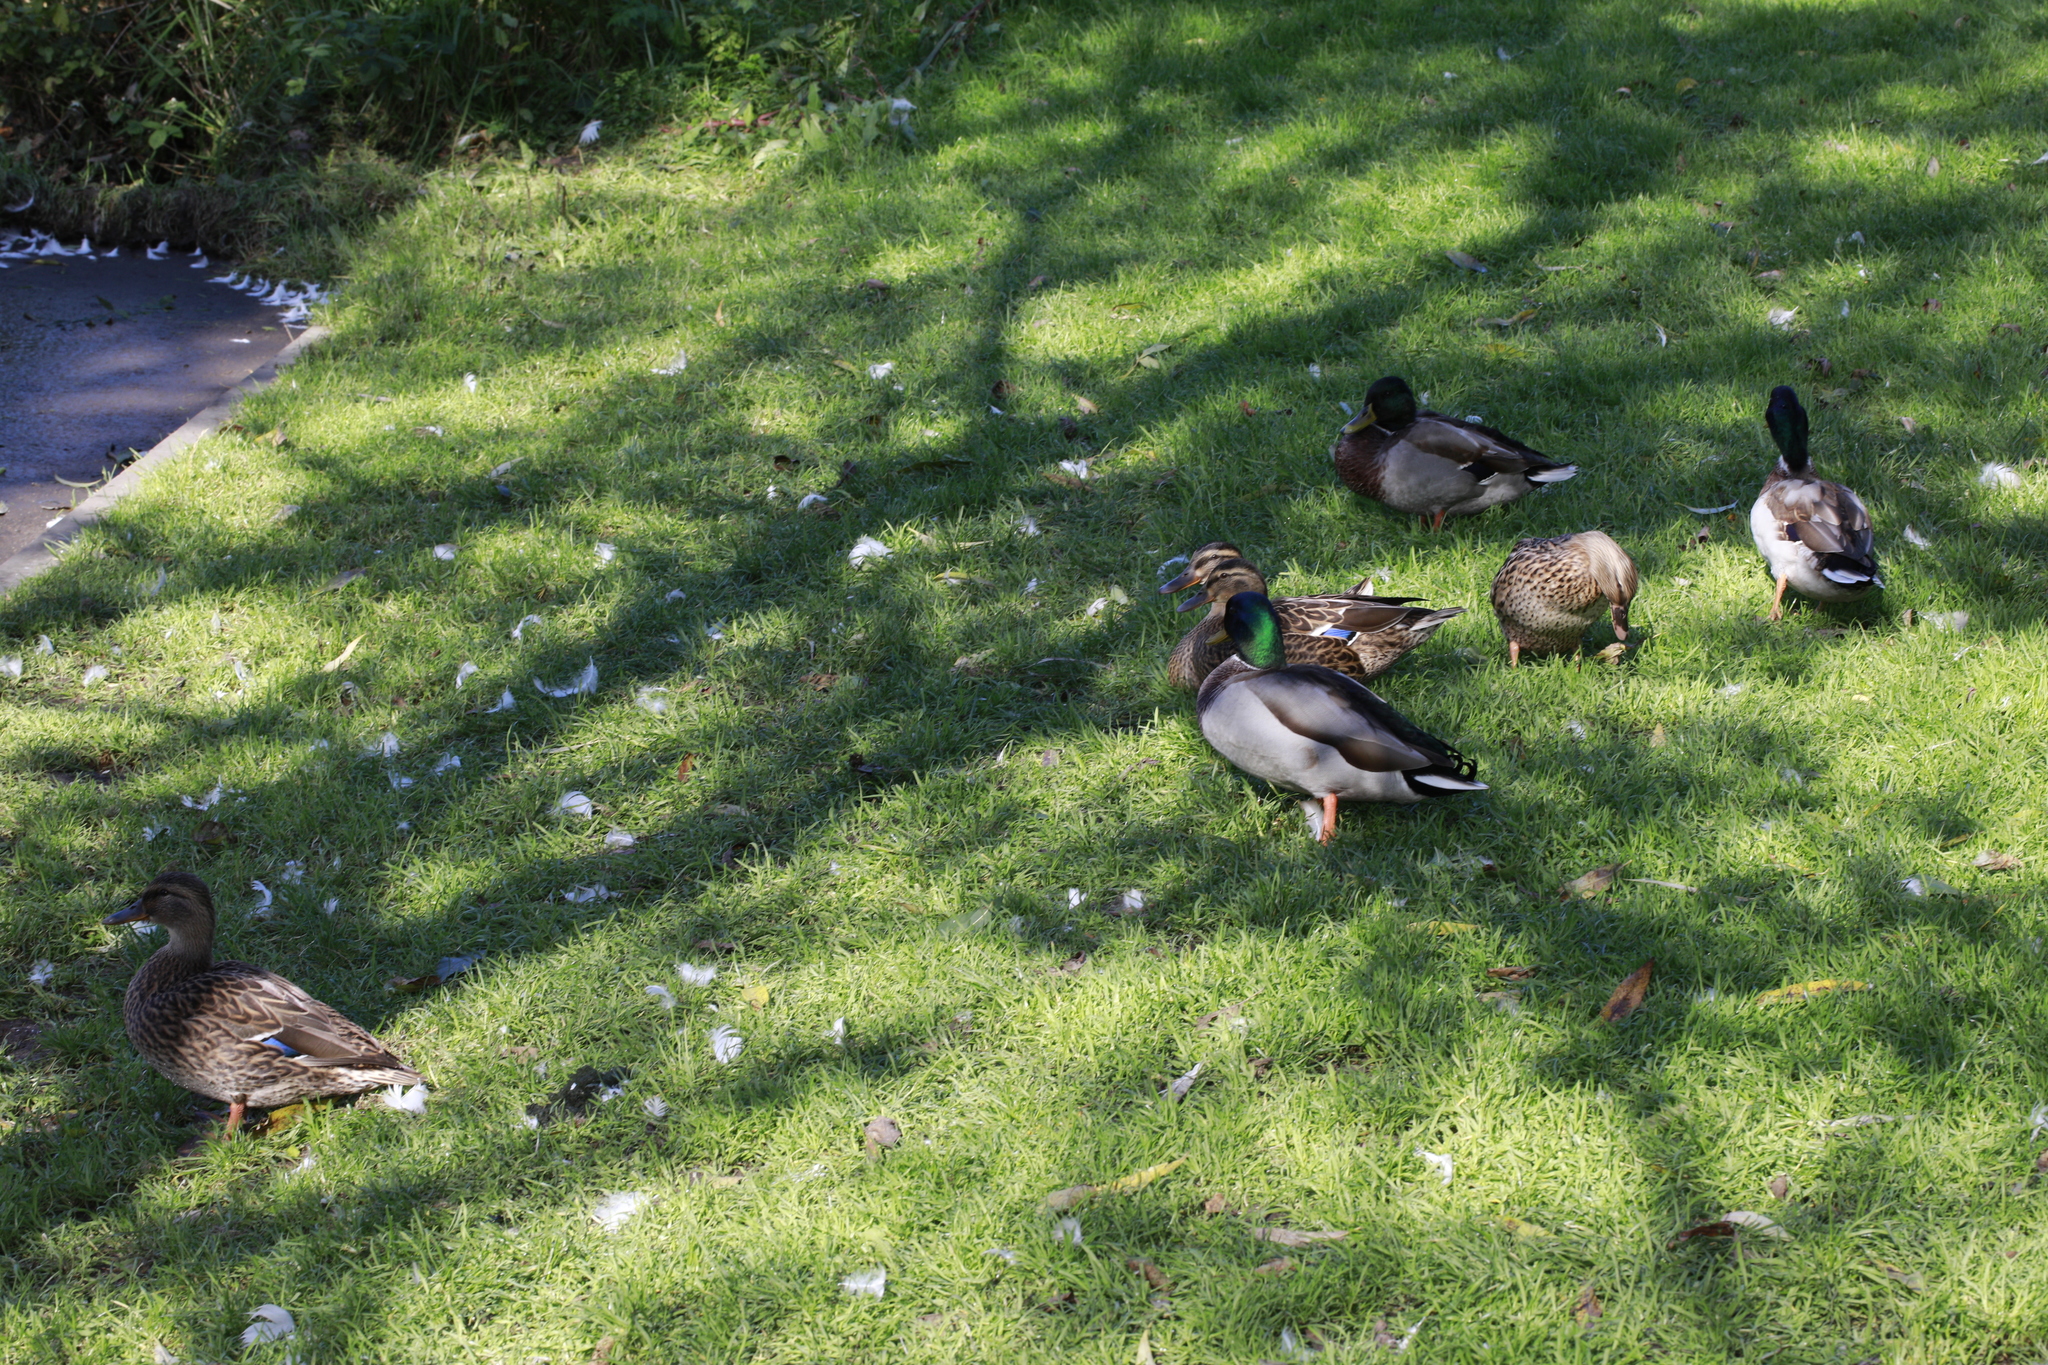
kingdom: Animalia
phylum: Chordata
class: Aves
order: Anseriformes
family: Anatidae
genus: Anas
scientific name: Anas platyrhynchos
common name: Mallard
